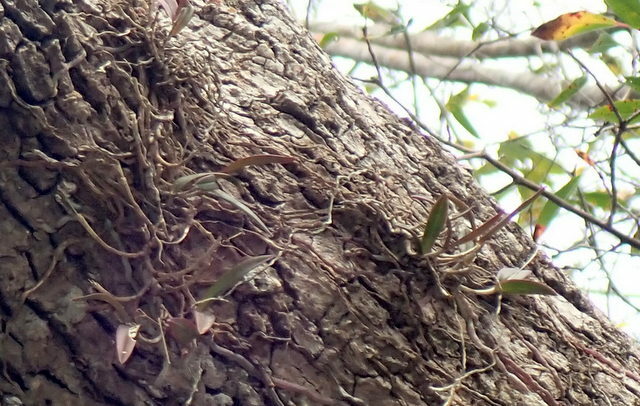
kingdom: Plantae
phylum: Tracheophyta
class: Liliopsida
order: Asparagales
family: Orchidaceae
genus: Epidendrum
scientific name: Epidendrum conopseum
